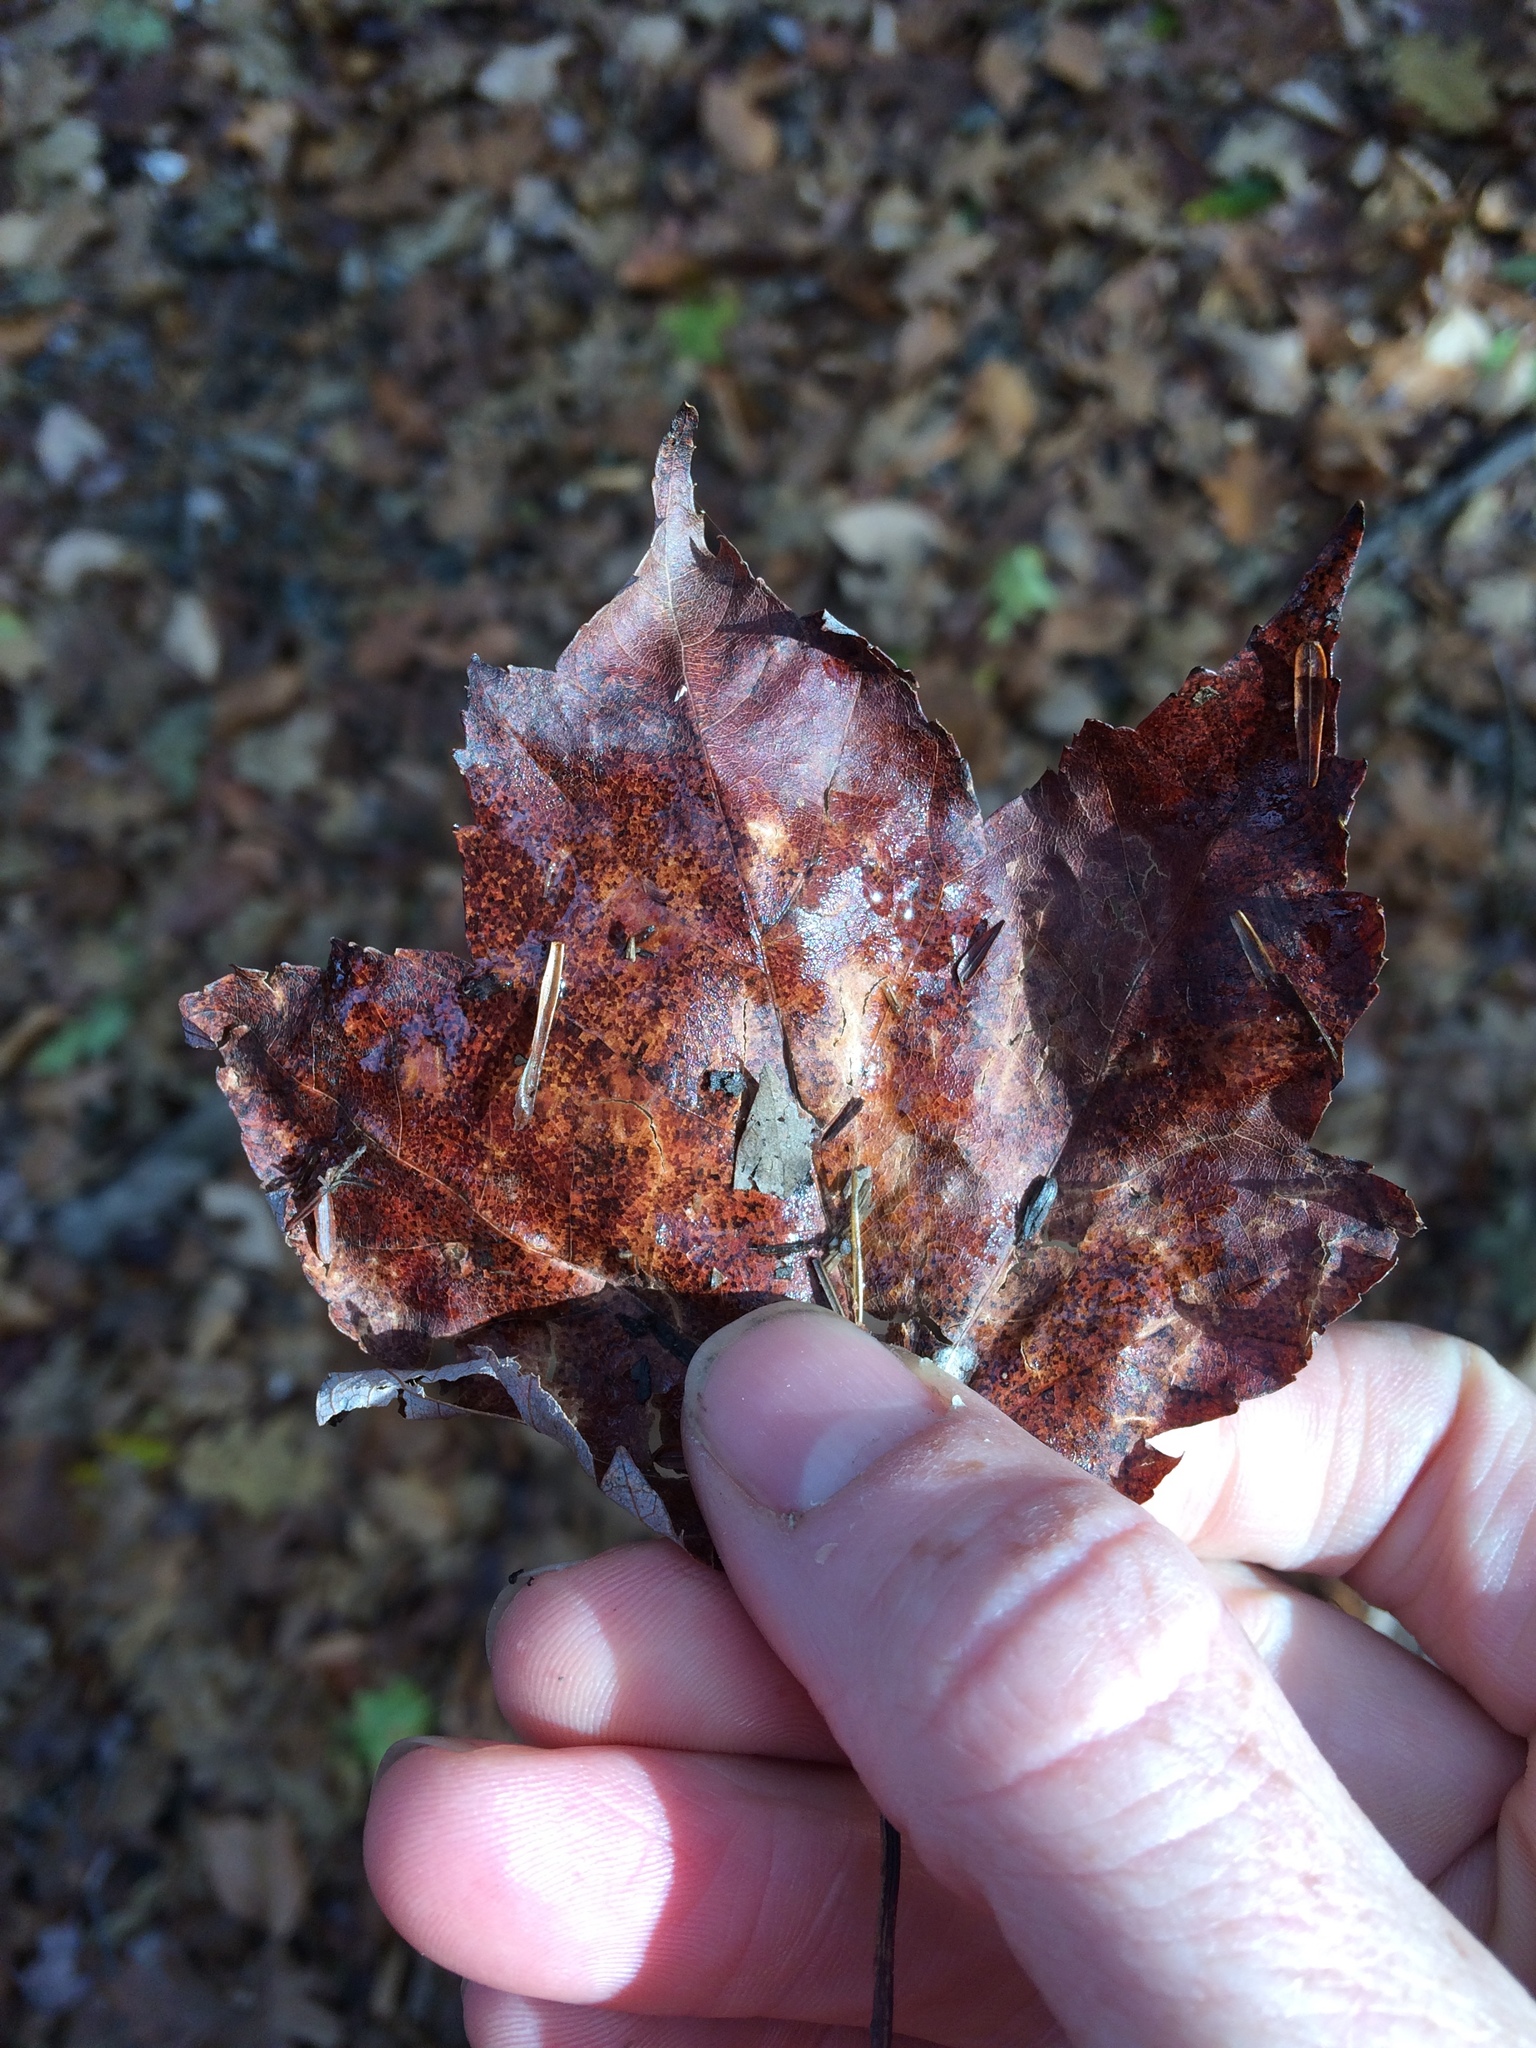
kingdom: Plantae
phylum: Tracheophyta
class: Magnoliopsida
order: Sapindales
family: Sapindaceae
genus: Acer
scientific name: Acer rubrum
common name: Red maple
